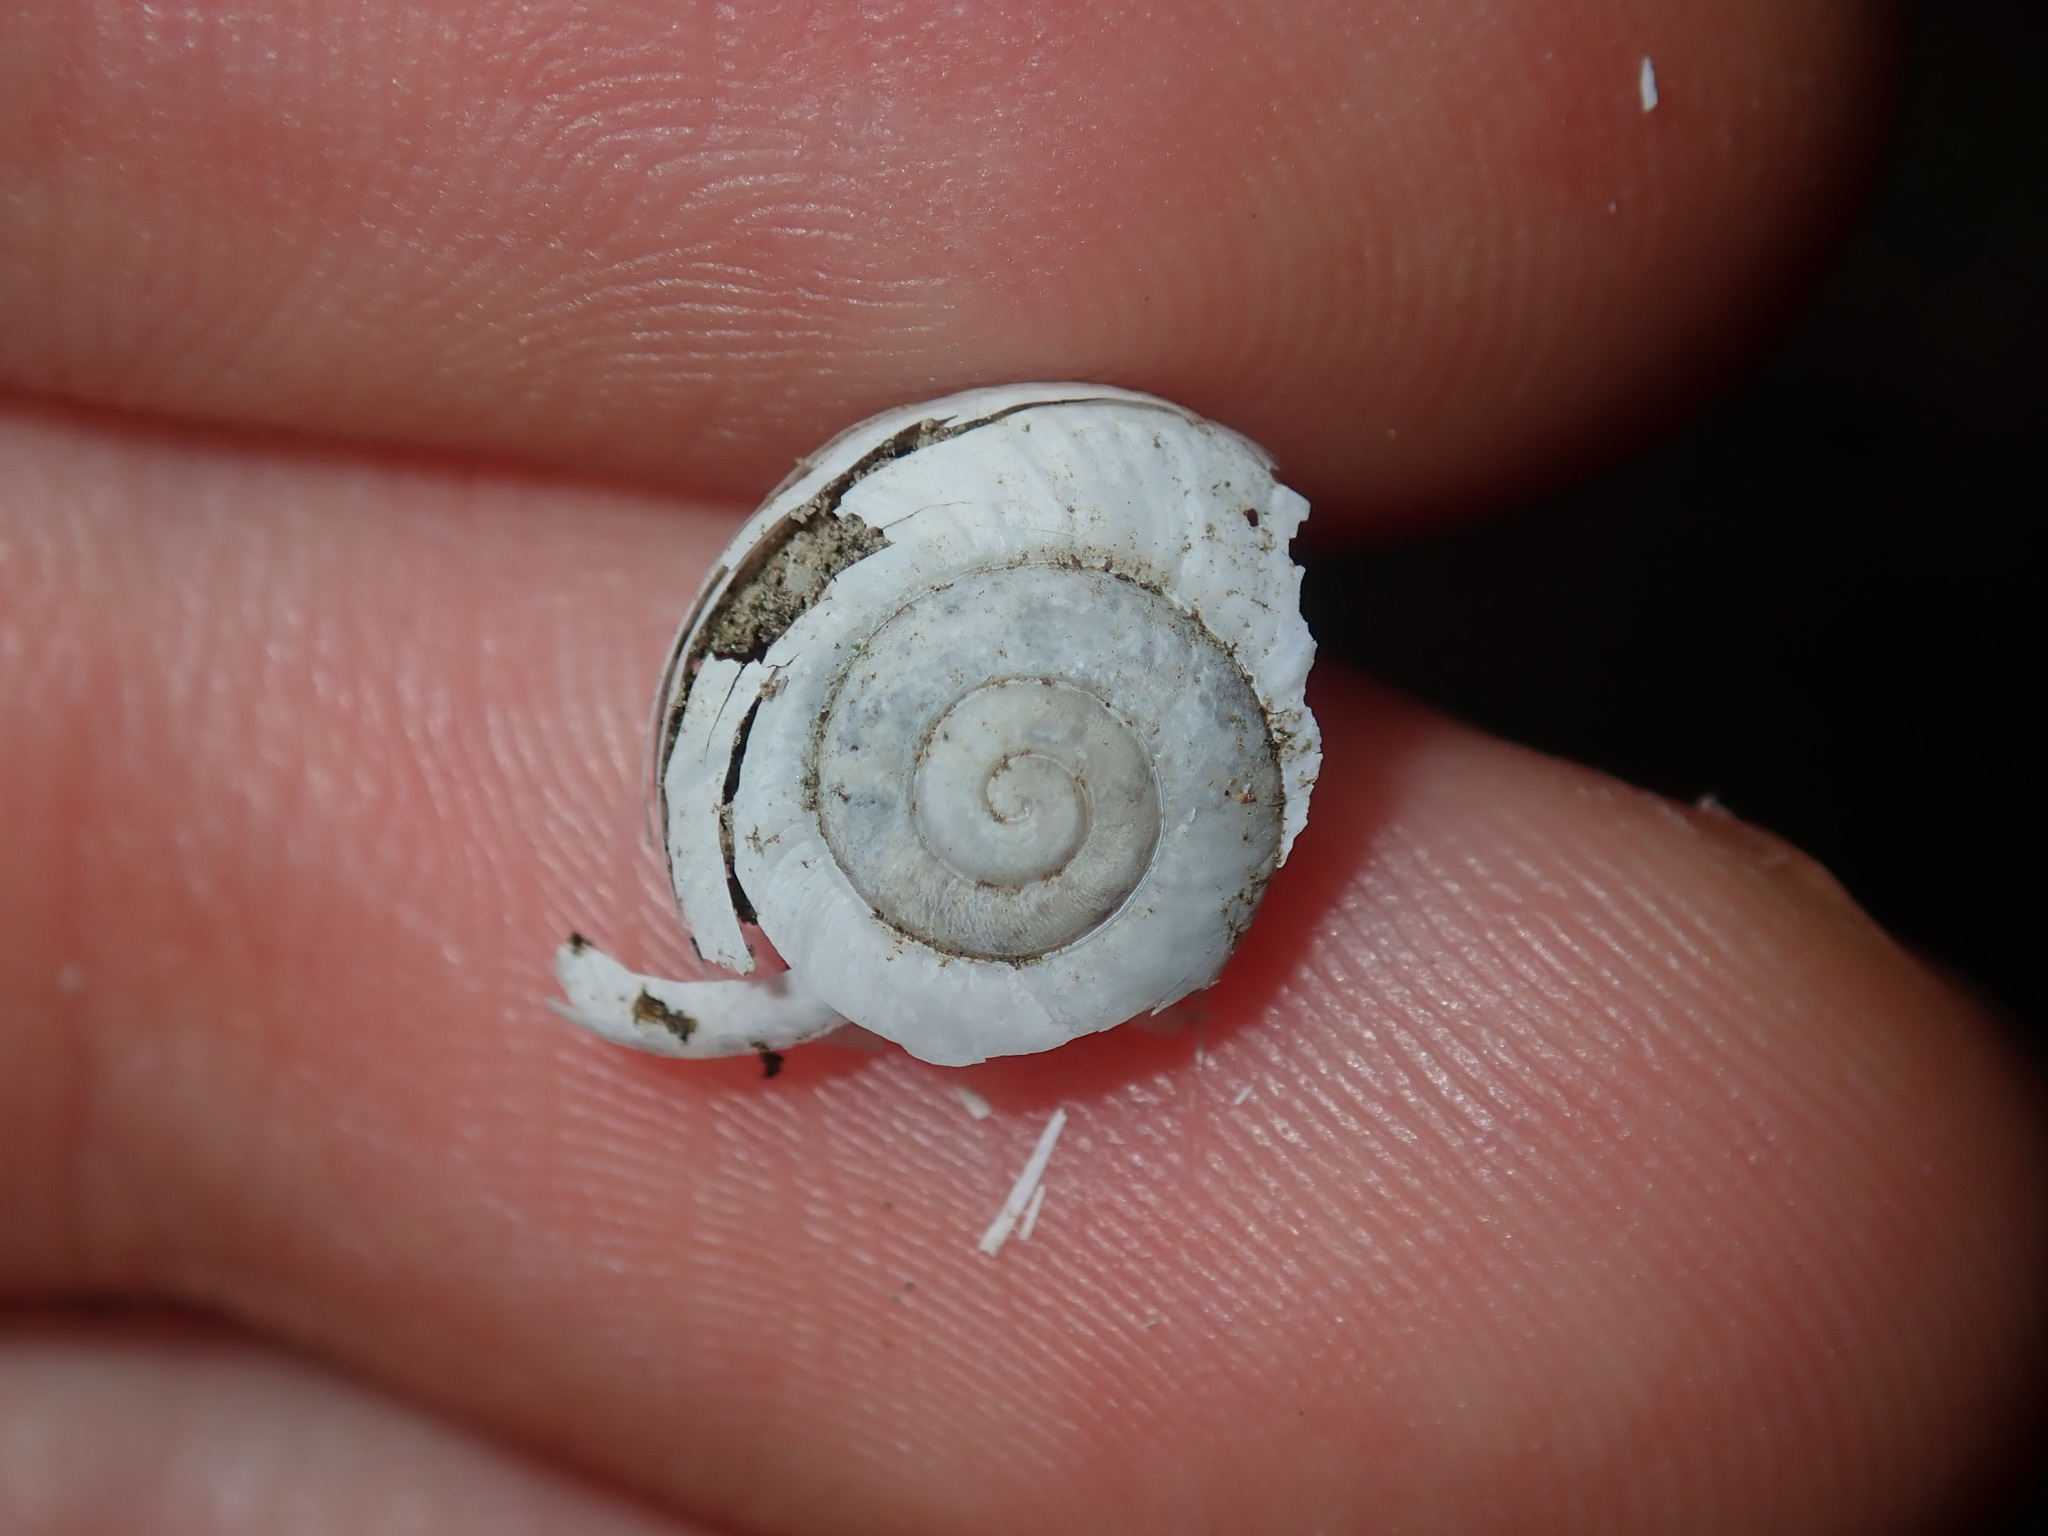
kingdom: Animalia
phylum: Mollusca
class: Gastropoda
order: Stylommatophora
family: Camaenidae
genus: Sauroconcha
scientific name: Sauroconcha sheai
